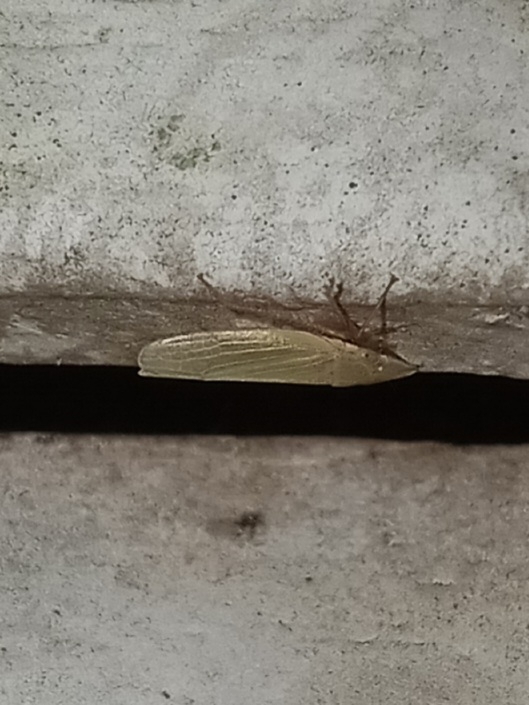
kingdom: Animalia
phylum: Arthropoda
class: Insecta
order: Hemiptera
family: Cicadellidae
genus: Draeculacephala
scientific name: Draeculacephala antica
